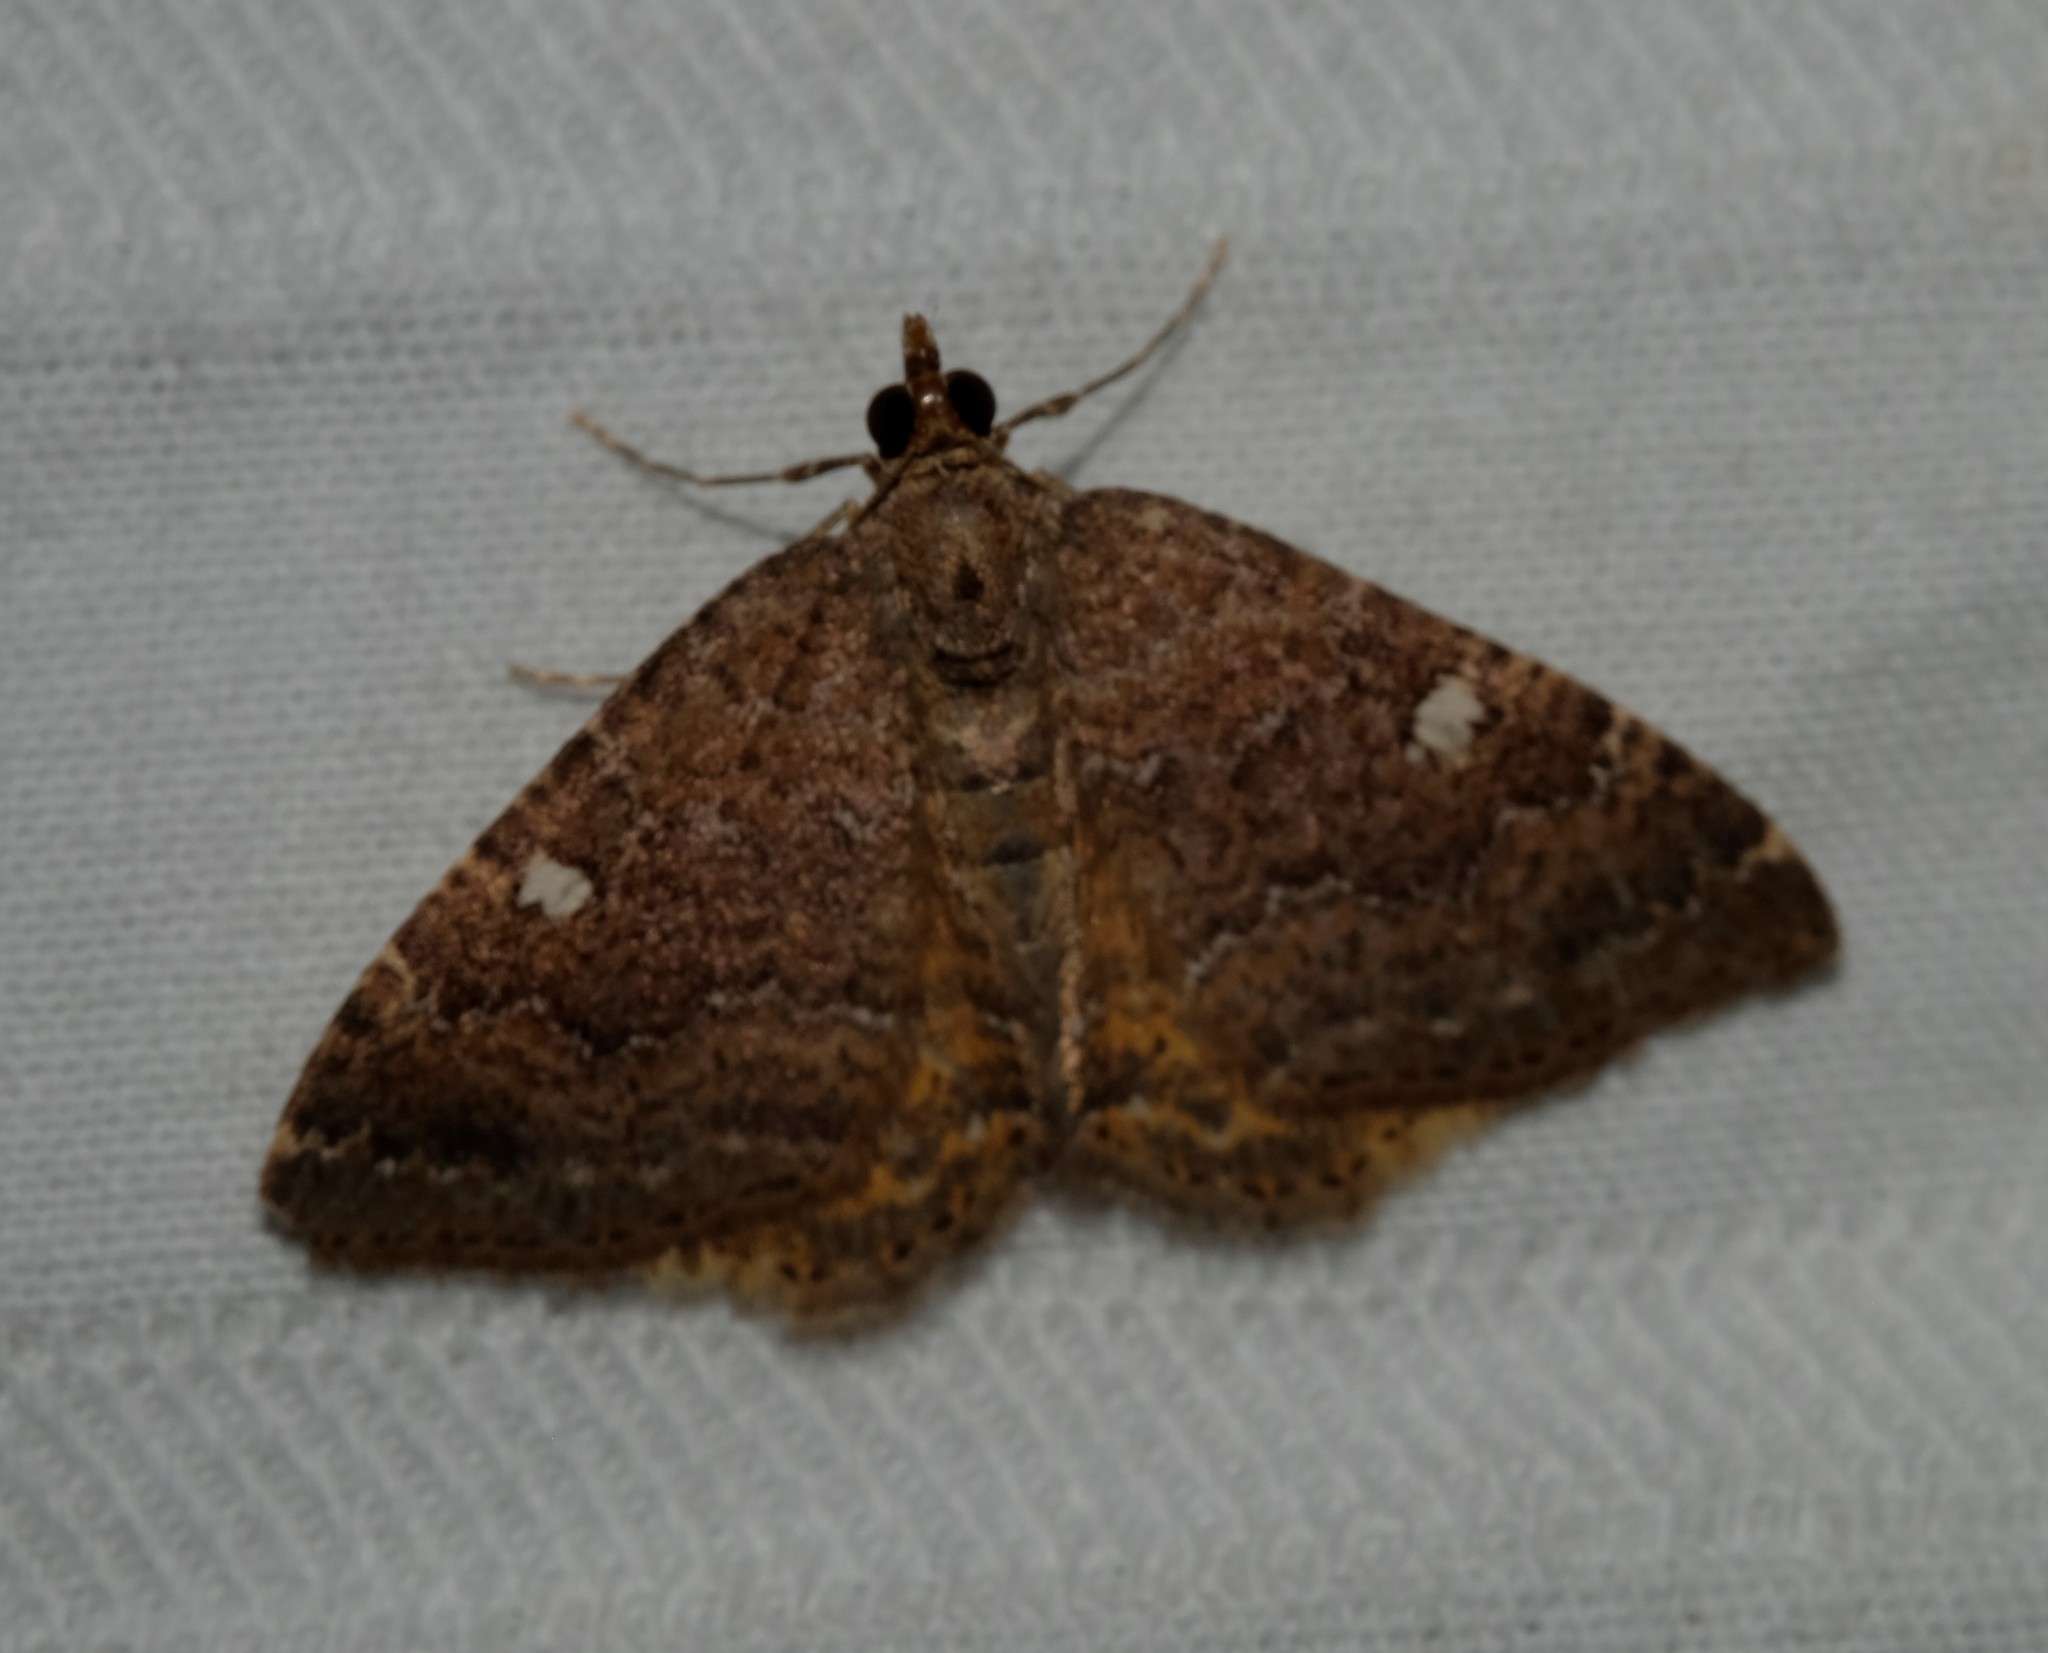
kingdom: Animalia
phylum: Arthropoda
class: Insecta
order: Lepidoptera
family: Geometridae
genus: Chrysolarentia
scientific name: Chrysolarentia heteroleuca
